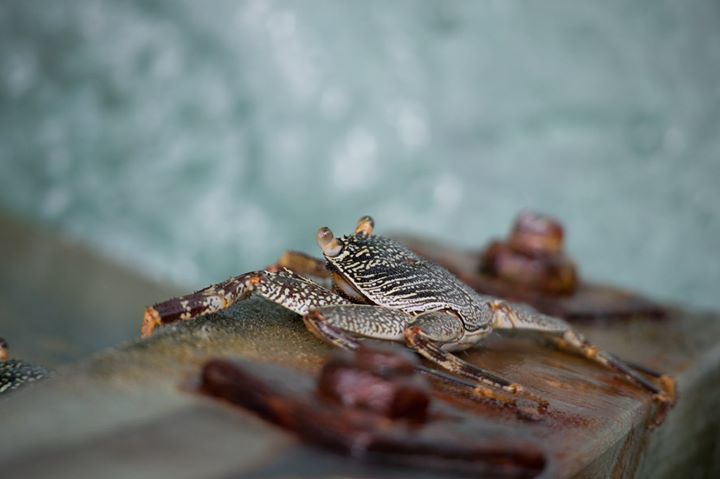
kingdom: Animalia
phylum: Arthropoda
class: Malacostraca
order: Decapoda
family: Grapsidae
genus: Grapsus
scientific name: Grapsus albolineatus
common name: Mottled lightfoot crab
